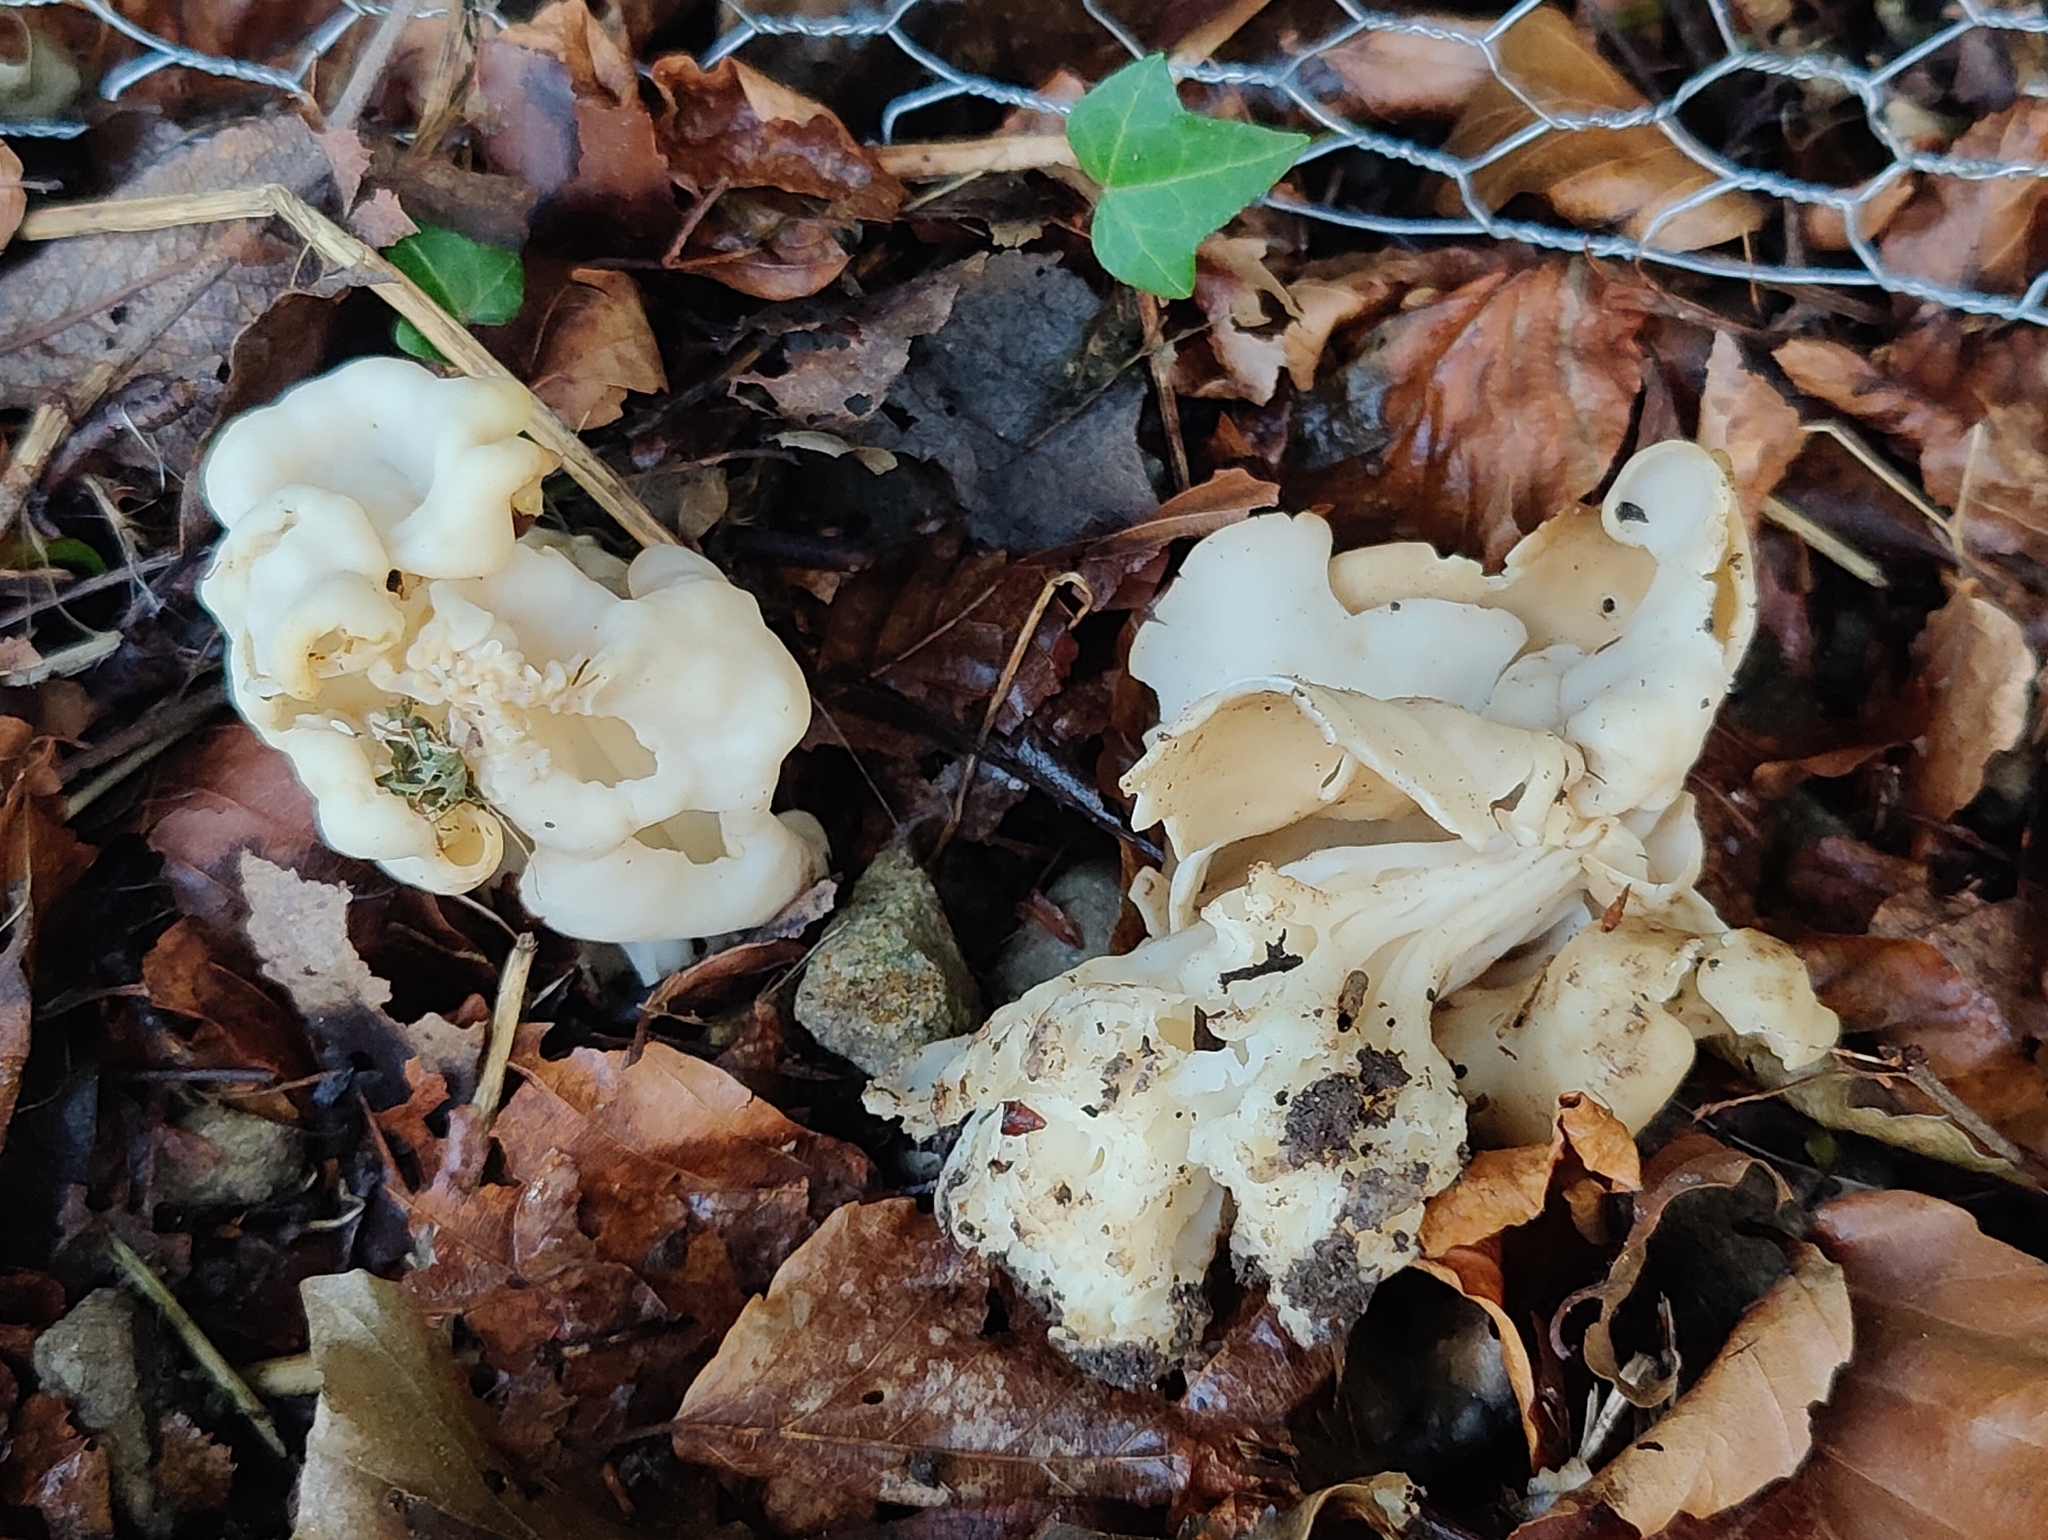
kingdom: Fungi
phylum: Ascomycota
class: Pezizomycetes
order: Pezizales
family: Helvellaceae
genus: Helvella
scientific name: Helvella crispa
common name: White saddle
